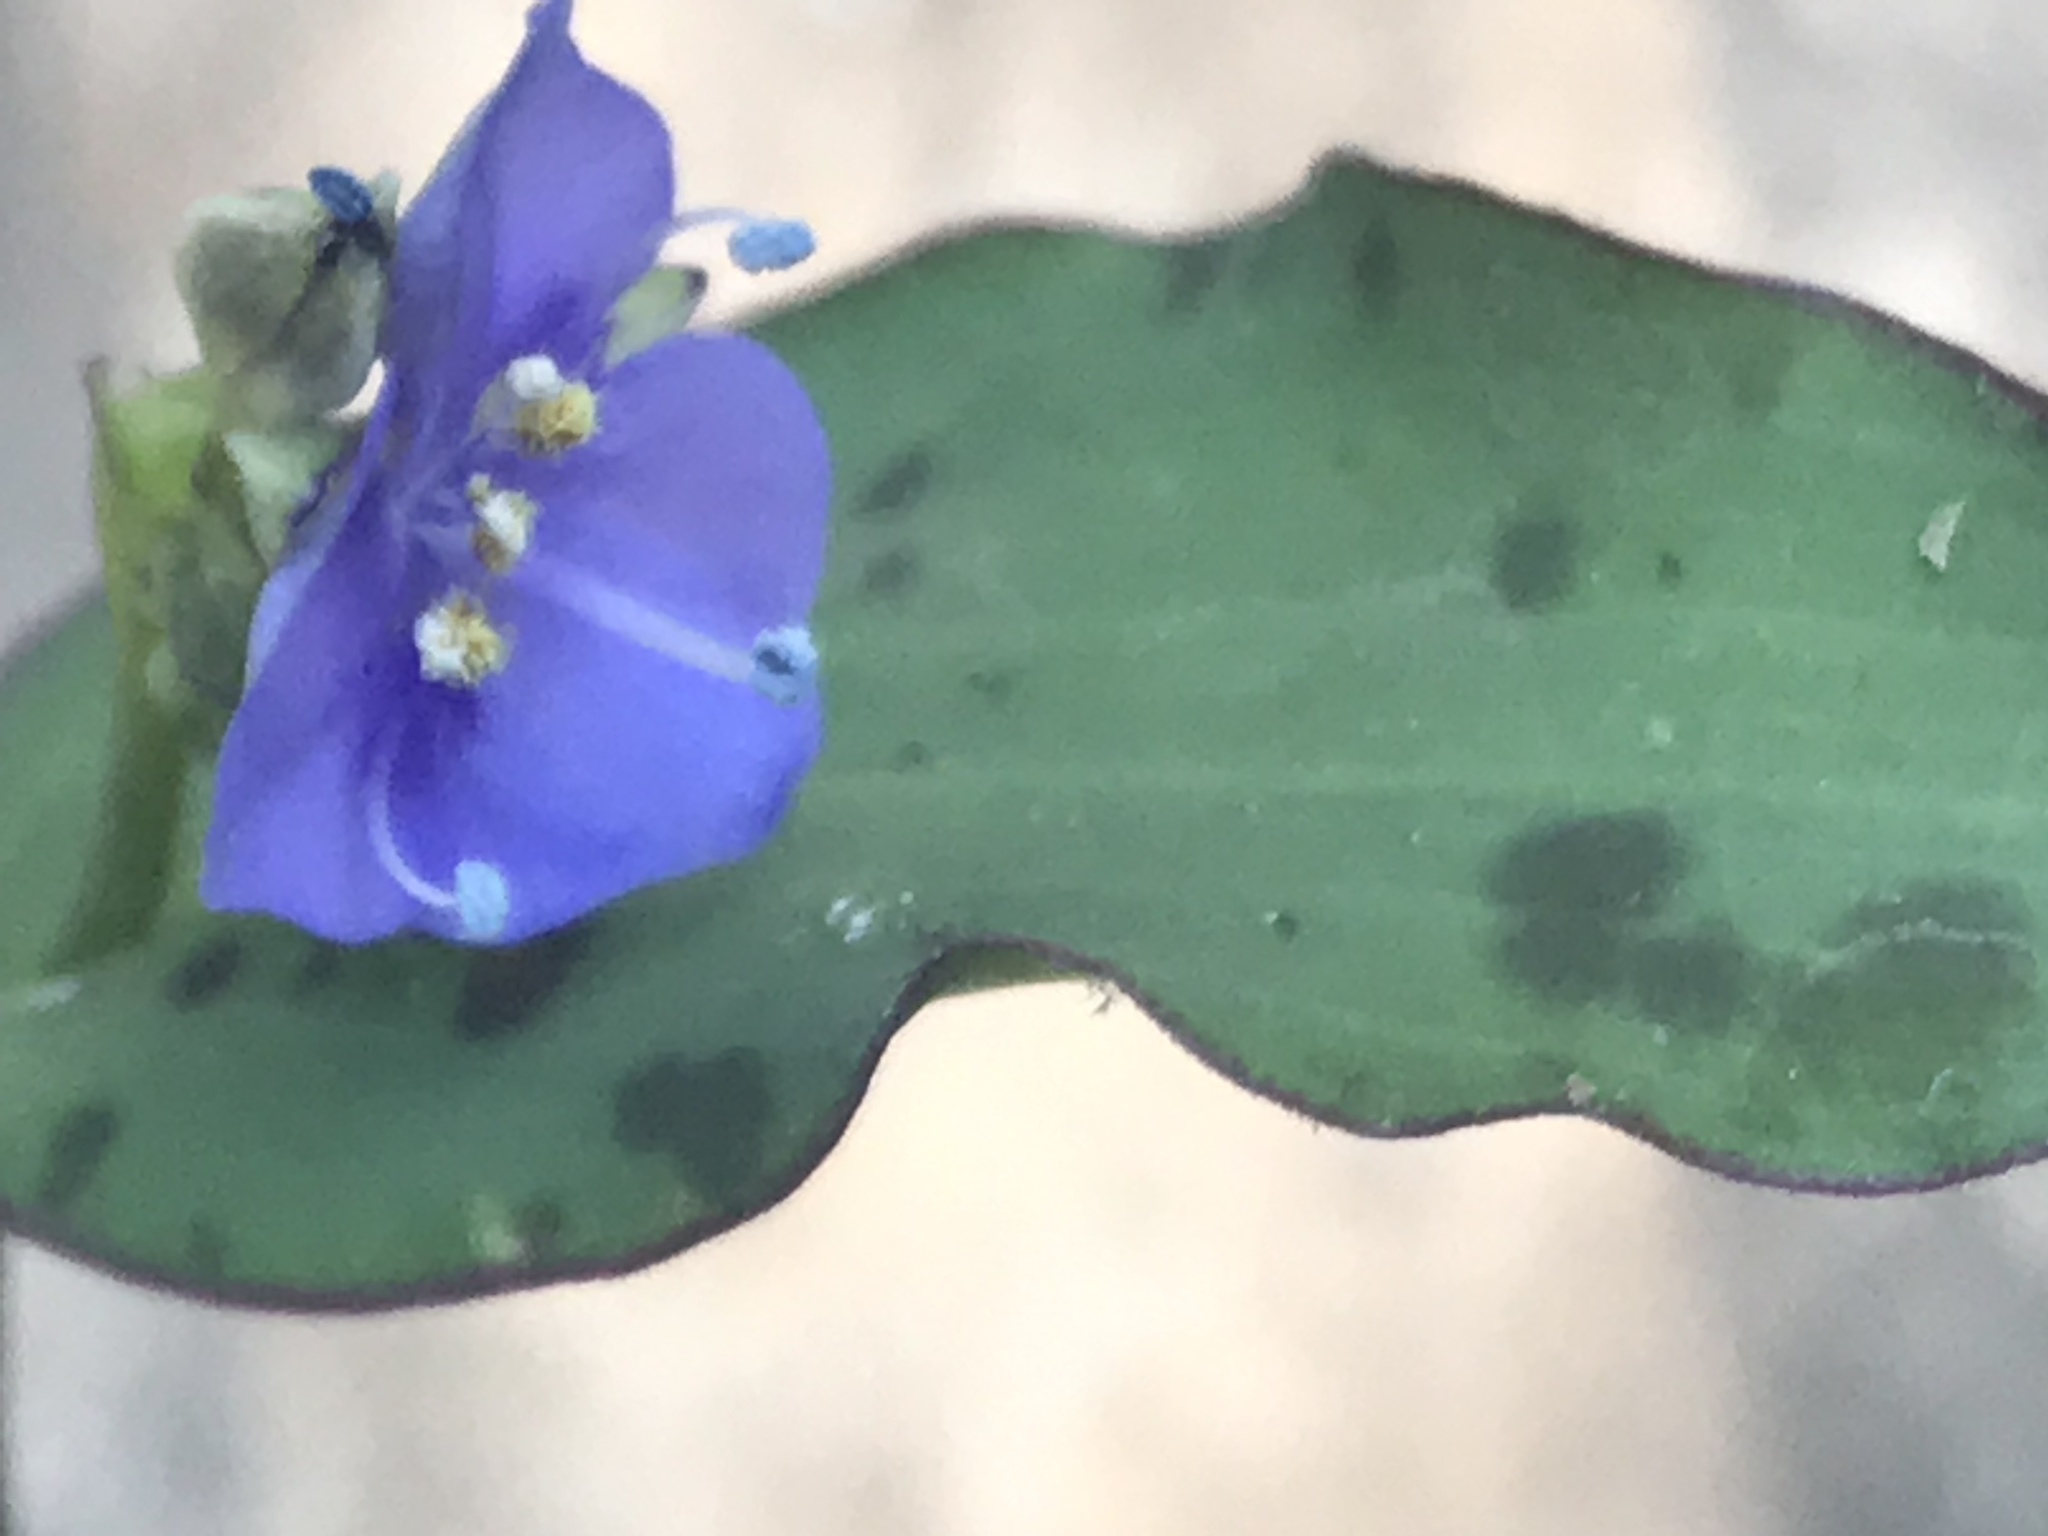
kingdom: Plantae
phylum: Tracheophyta
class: Liliopsida
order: Commelinales
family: Commelinaceae
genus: Tinantia
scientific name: Tinantia pringlei
